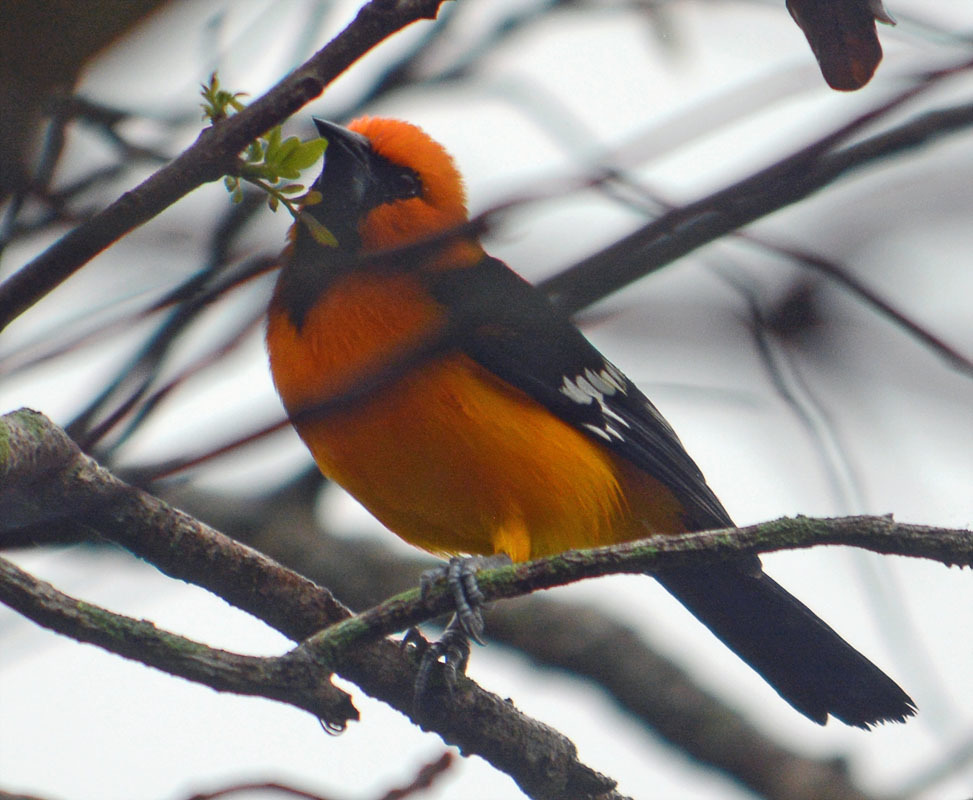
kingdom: Animalia
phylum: Chordata
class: Aves
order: Passeriformes
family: Icteridae
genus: Icterus
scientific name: Icterus gularis
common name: Altamira oriole
